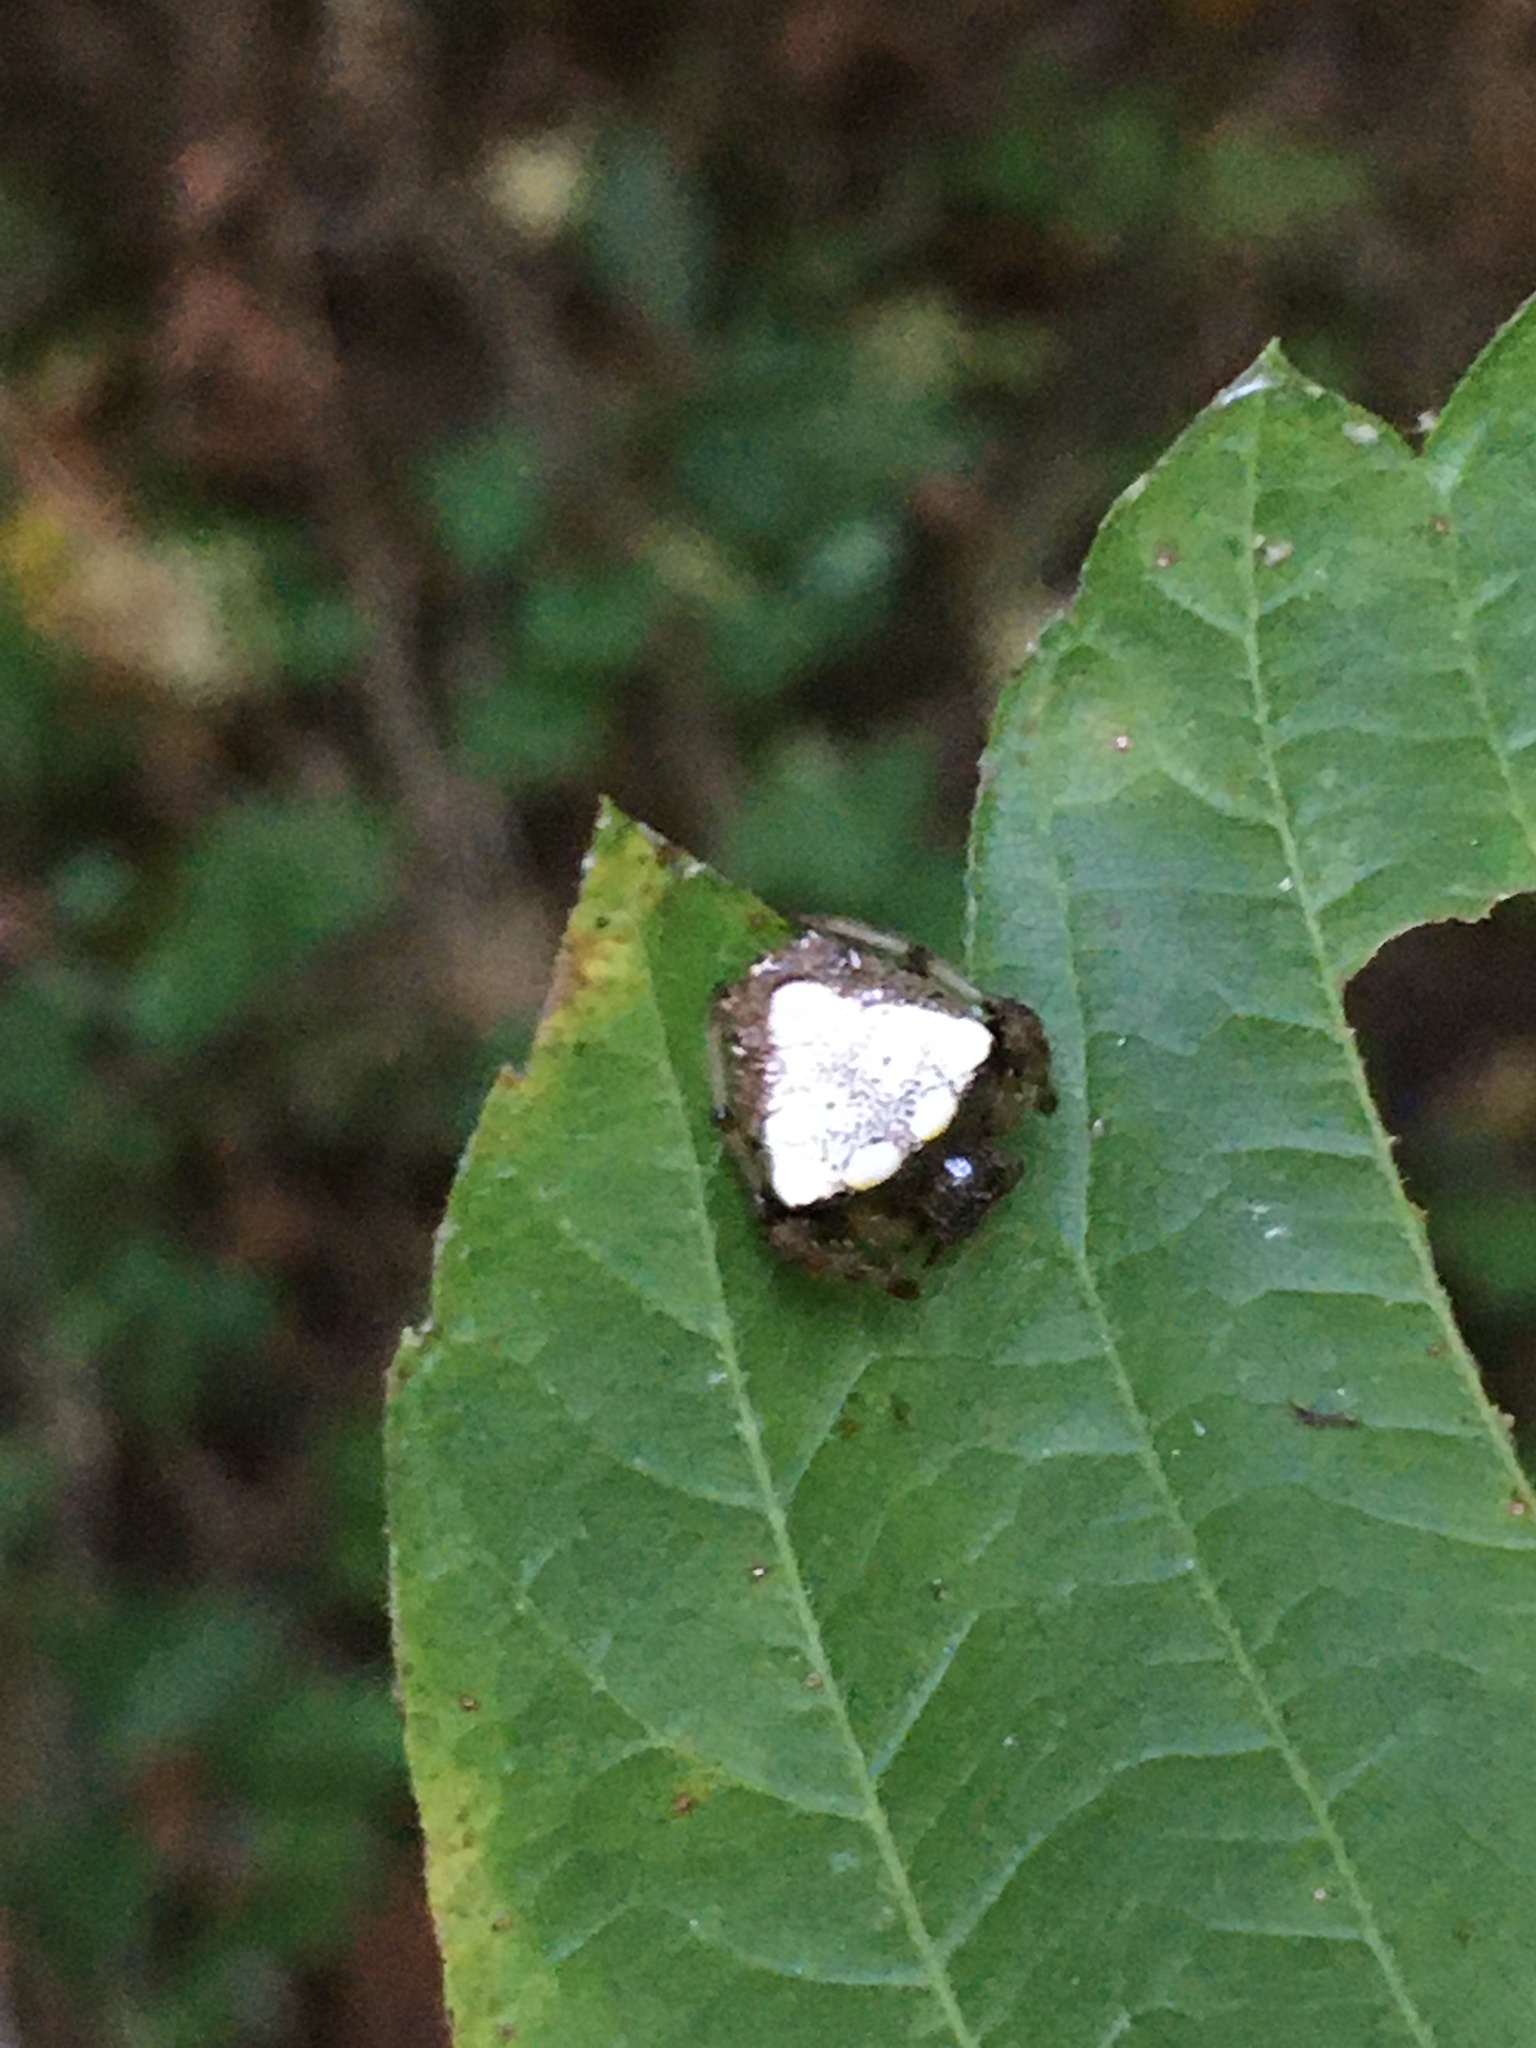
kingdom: Animalia
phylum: Arthropoda
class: Arachnida
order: Araneae
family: Araneidae
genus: Verrucosa
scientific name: Verrucosa arenata
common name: Orb weavers
